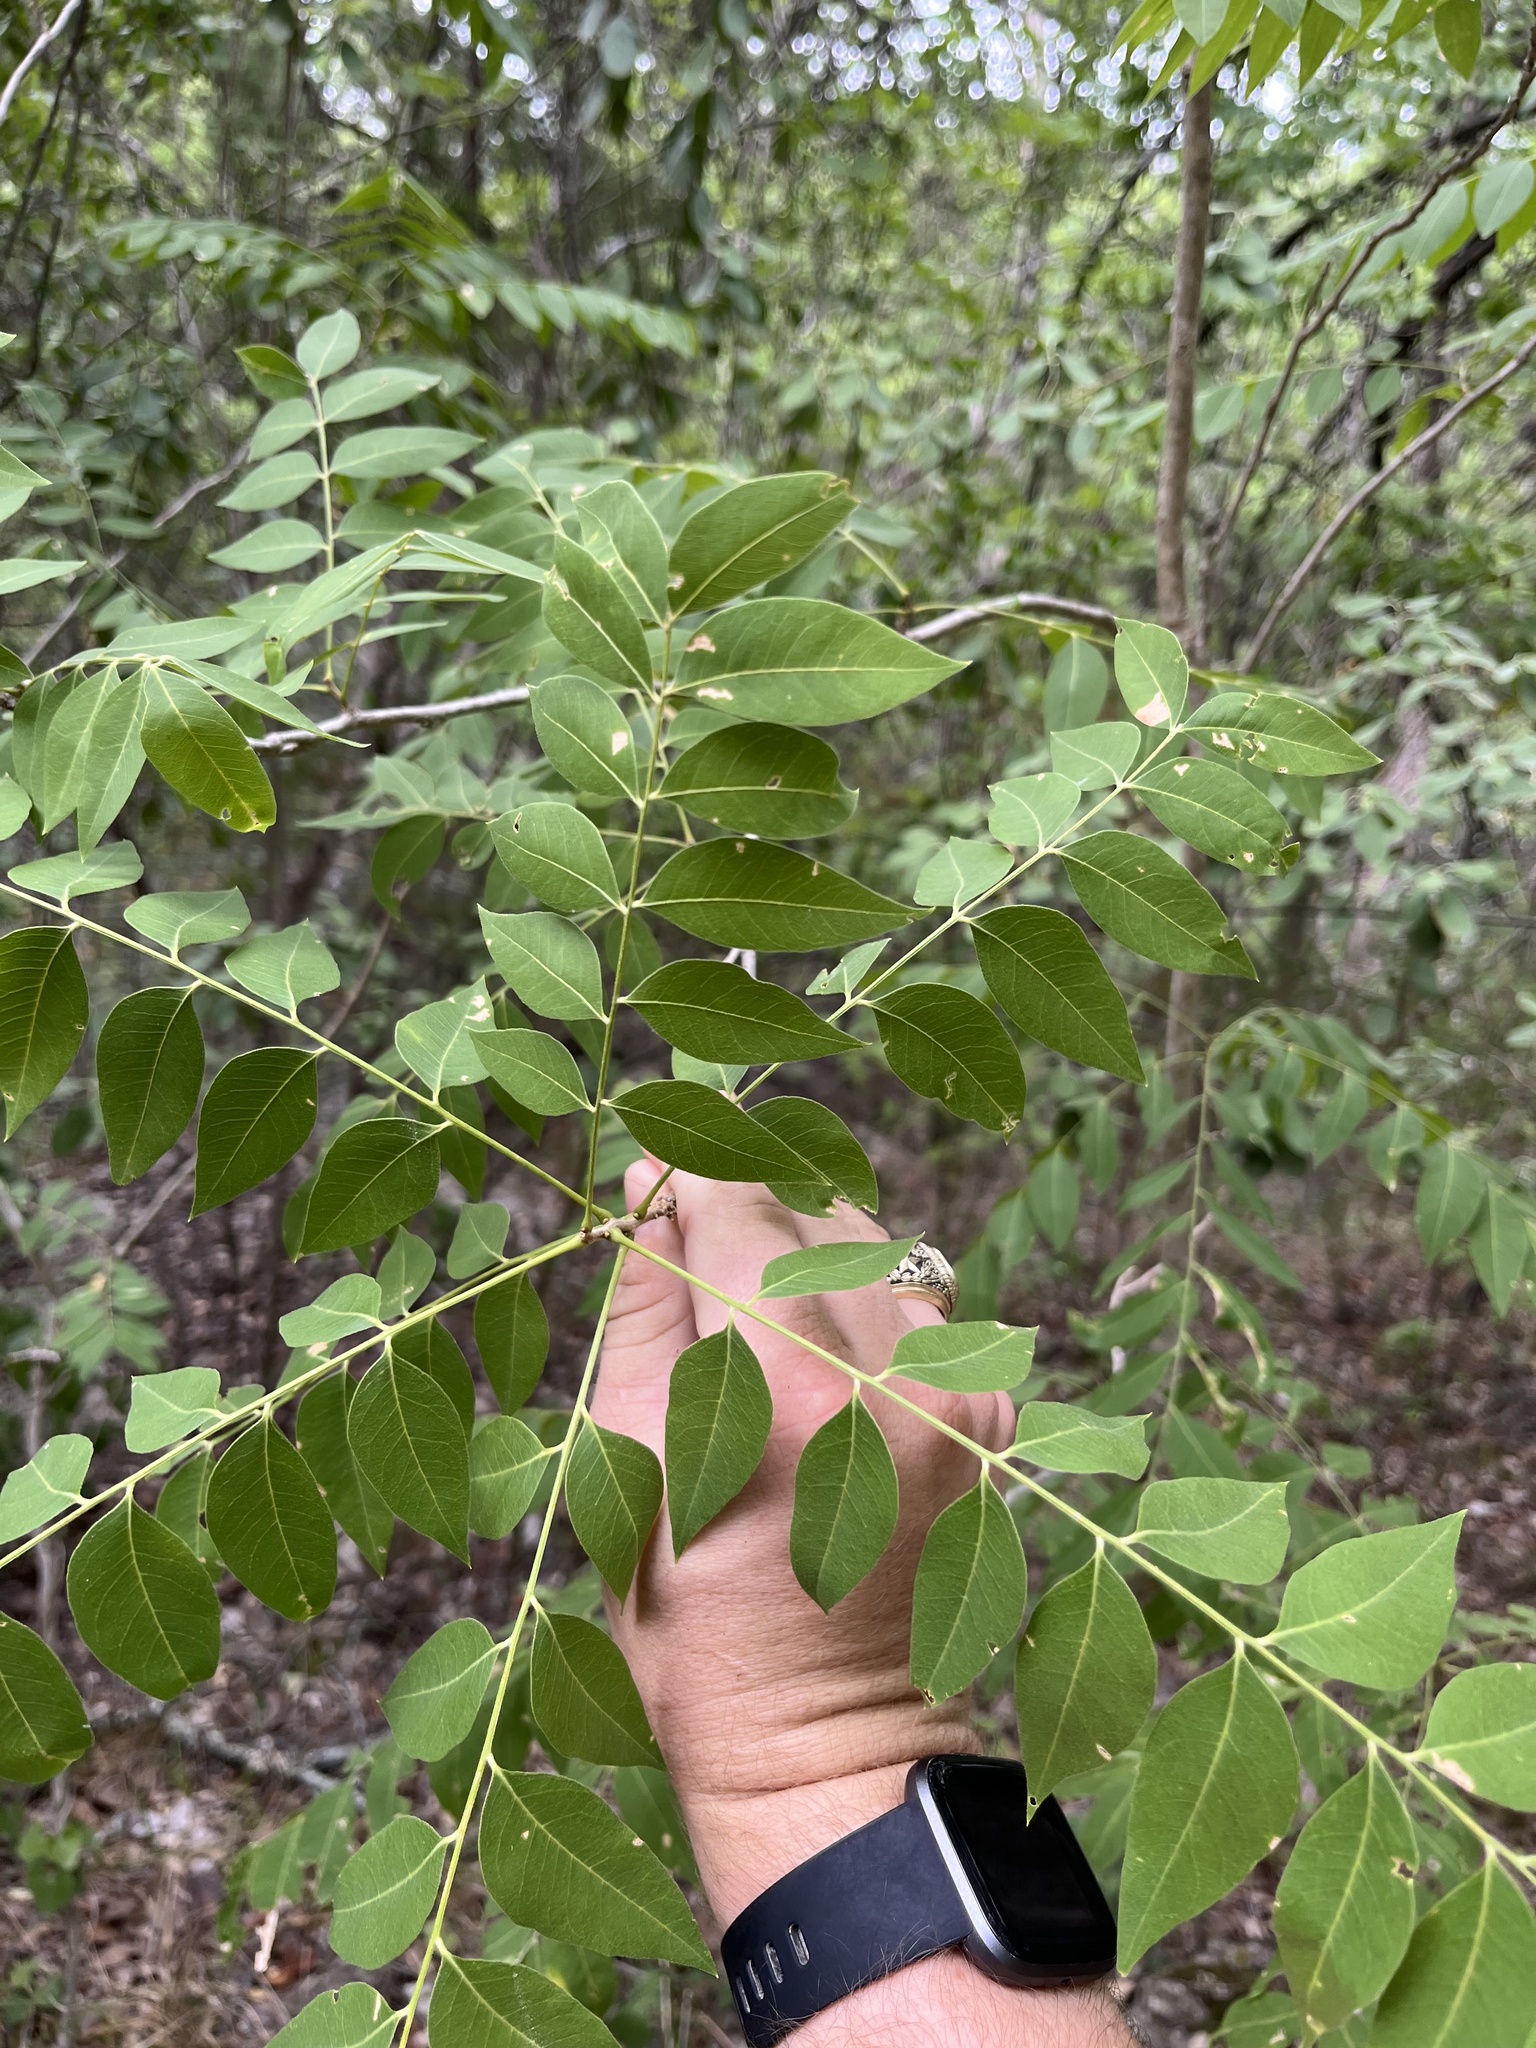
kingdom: Plantae
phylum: Tracheophyta
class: Magnoliopsida
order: Sapindales
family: Sapindaceae
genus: Sapindus
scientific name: Sapindus drummondii
